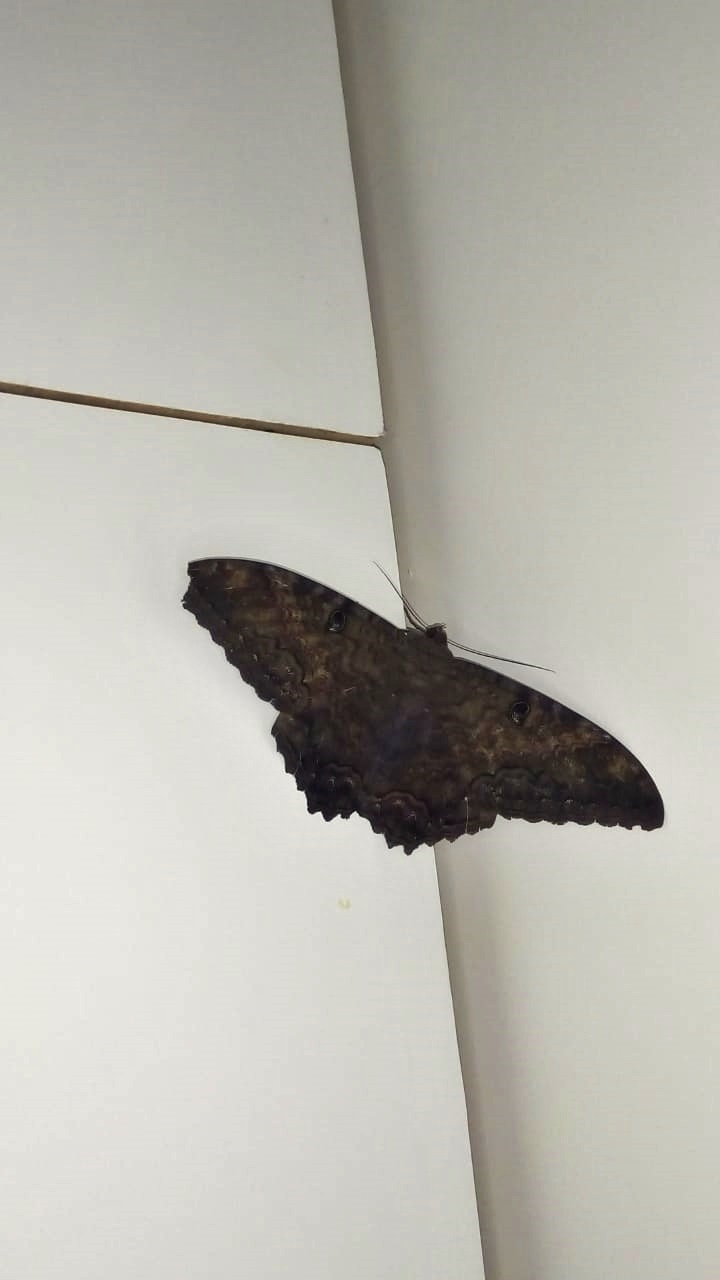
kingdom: Animalia
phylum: Arthropoda
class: Insecta
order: Lepidoptera
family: Erebidae
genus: Ascalapha
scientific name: Ascalapha odorata
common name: Black witch
